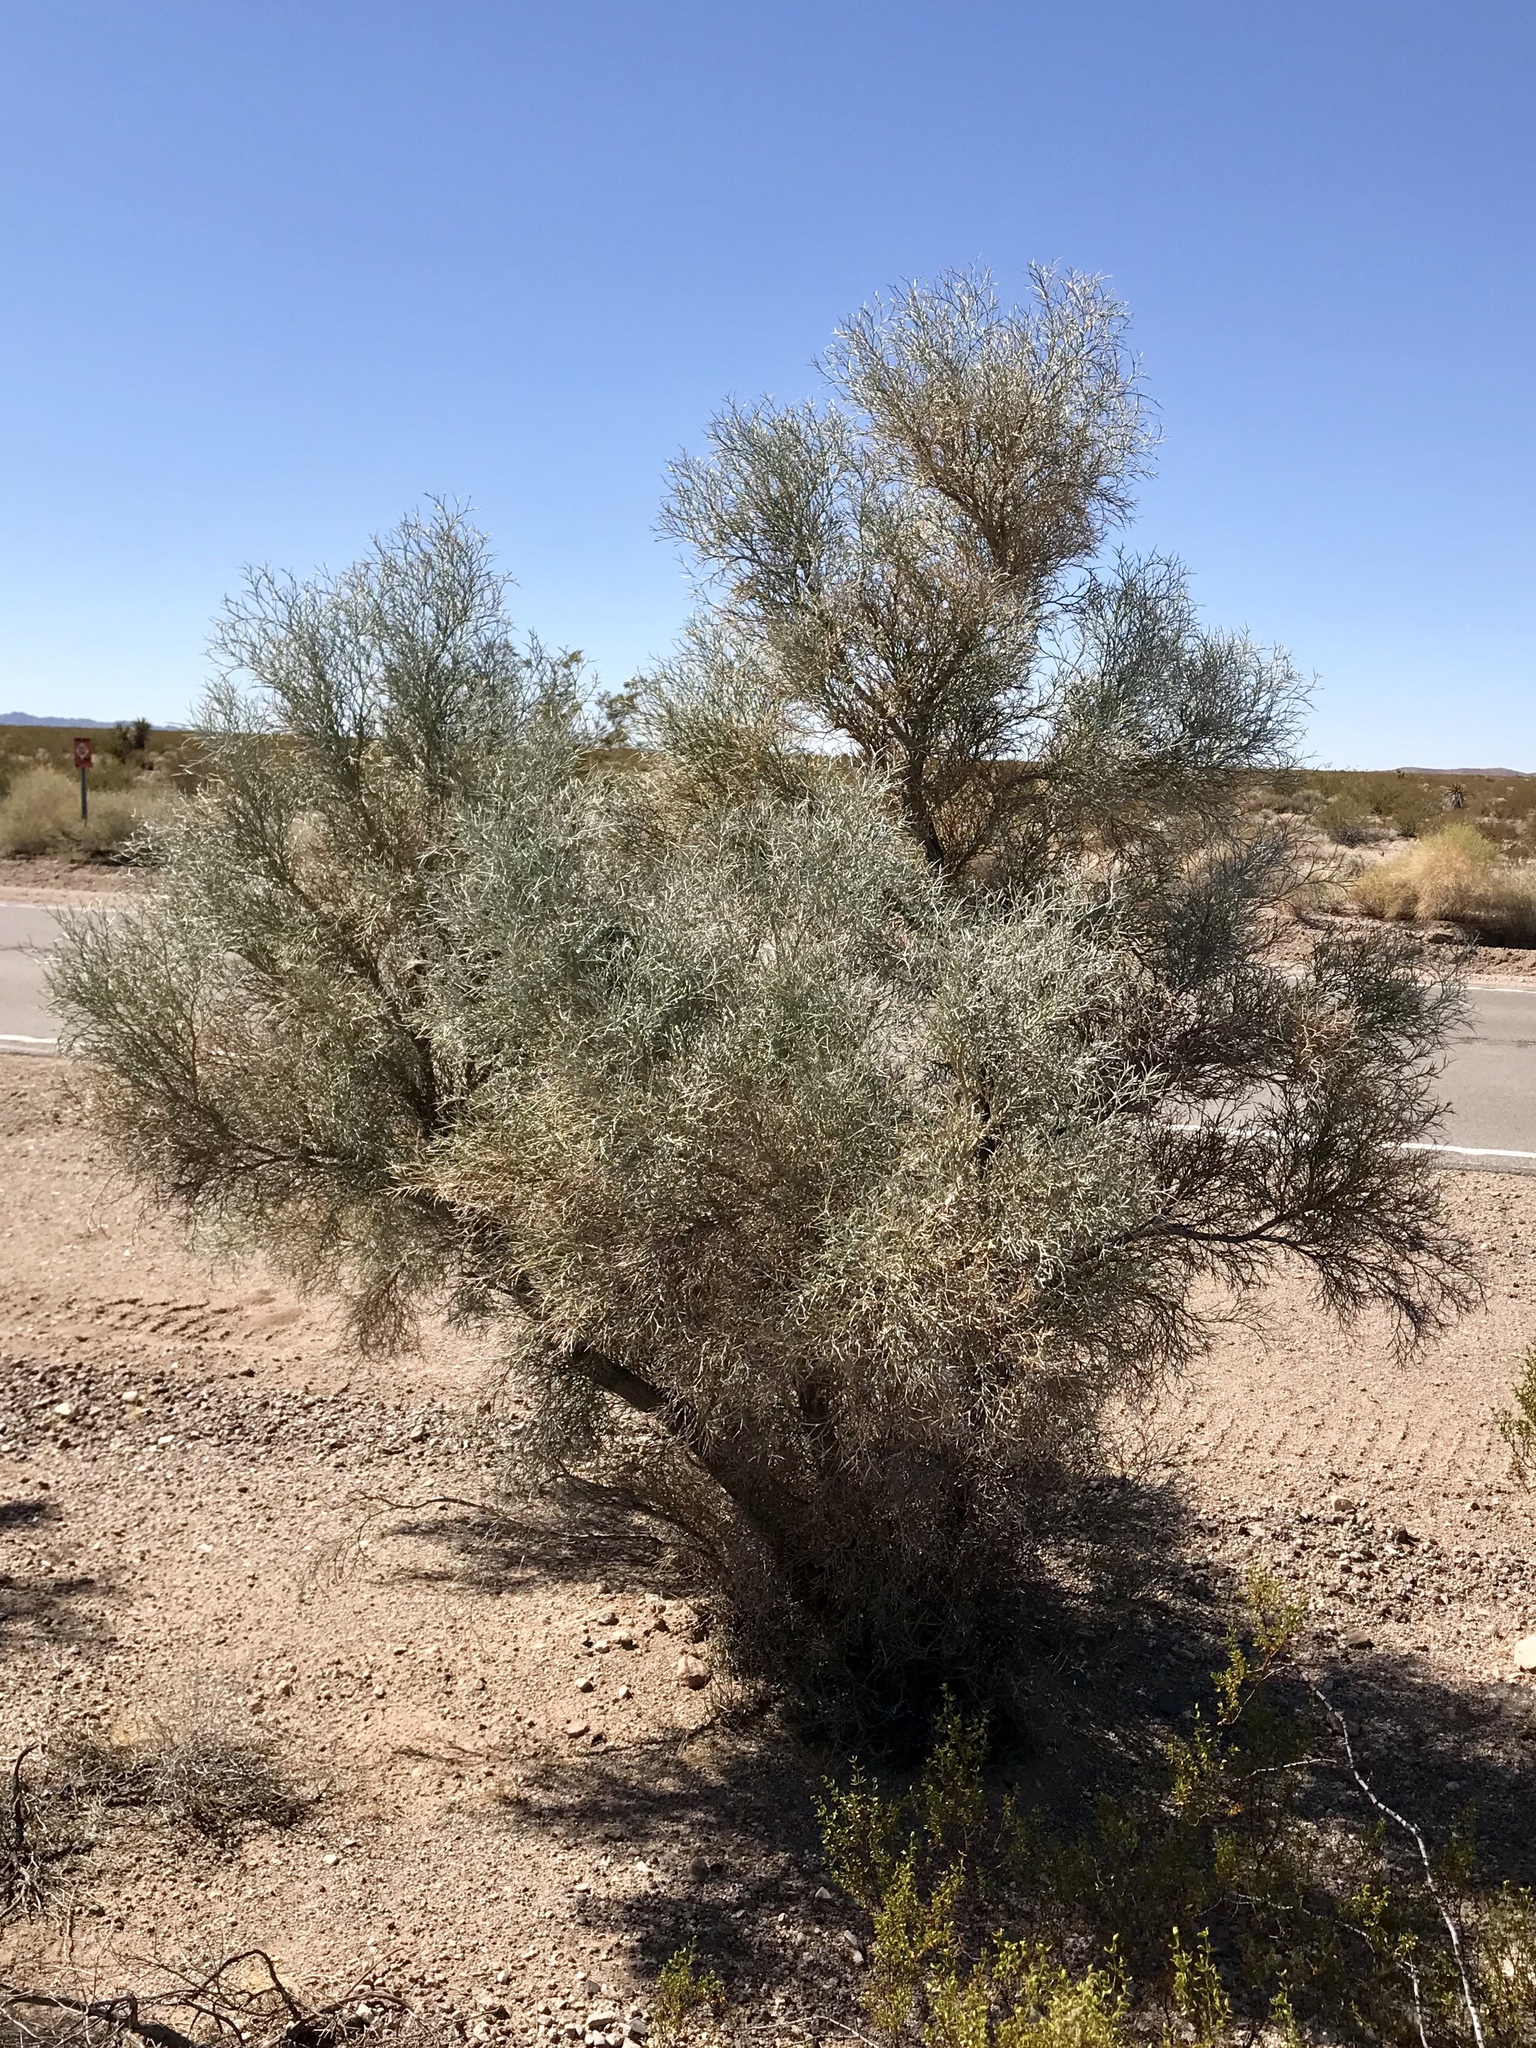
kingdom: Plantae
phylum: Tracheophyta
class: Magnoliopsida
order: Fabales
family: Fabaceae
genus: Psorothamnus
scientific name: Psorothamnus spinosus
